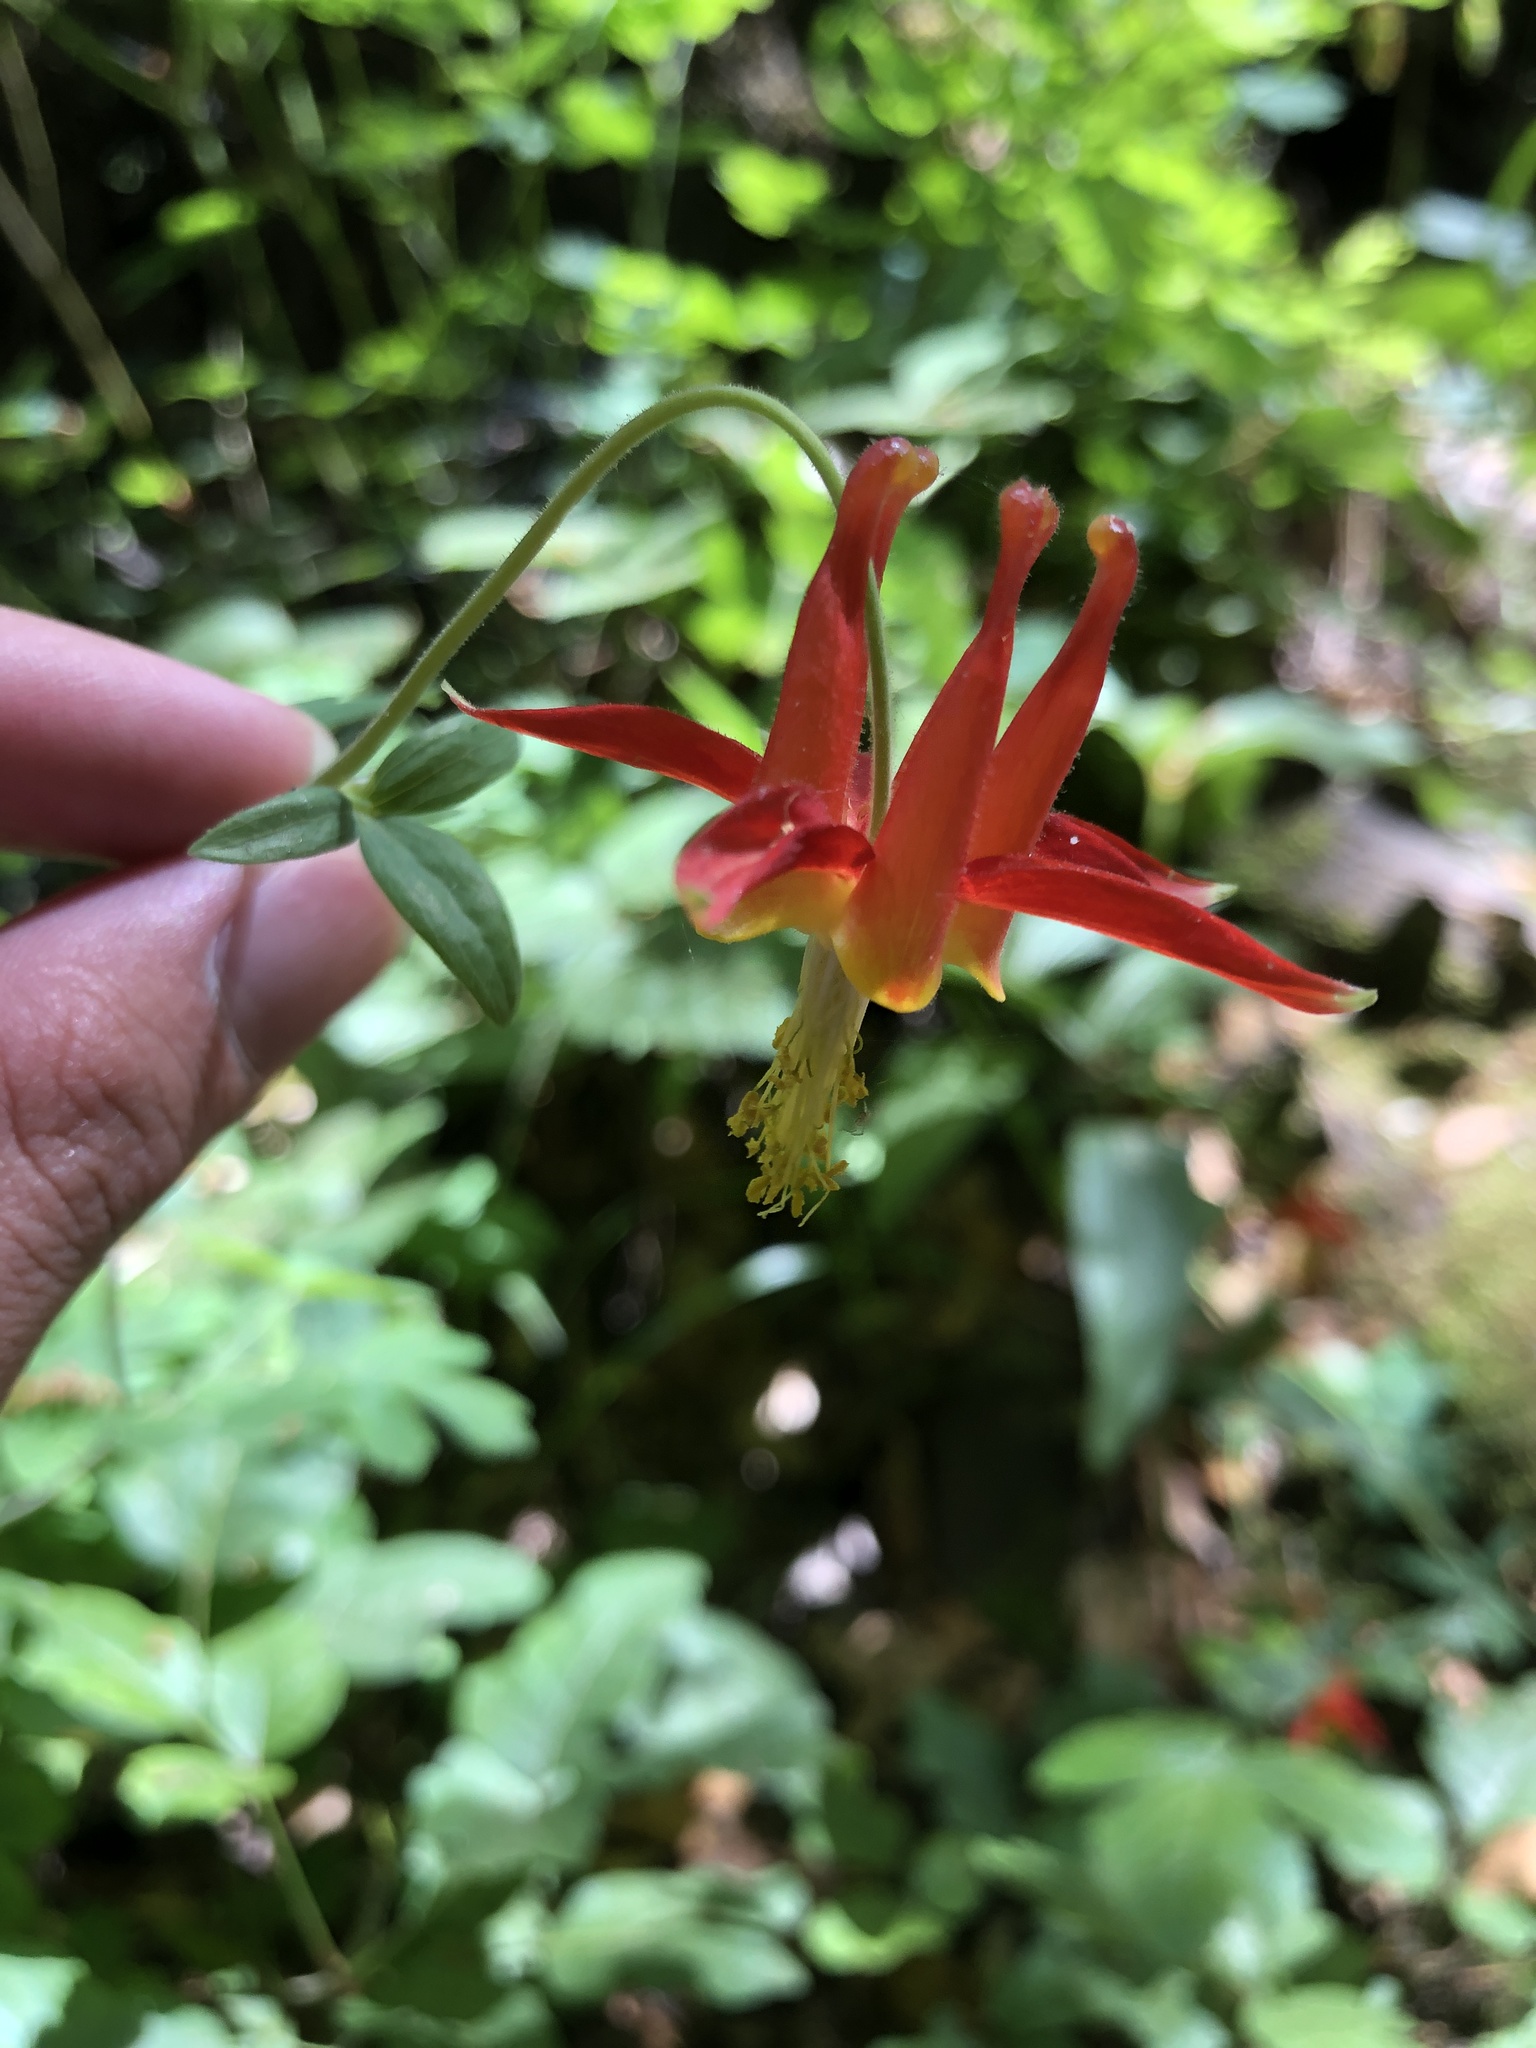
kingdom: Plantae
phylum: Tracheophyta
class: Magnoliopsida
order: Ranunculales
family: Ranunculaceae
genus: Aquilegia
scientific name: Aquilegia formosa
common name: Sitka columbine
